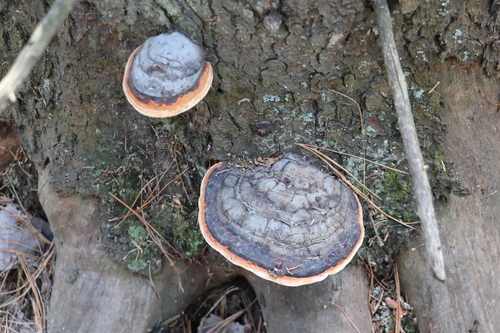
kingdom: Fungi
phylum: Basidiomycota
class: Agaricomycetes
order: Polyporales
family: Fomitopsidaceae
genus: Fomitopsis
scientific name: Fomitopsis pinicola
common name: Red-belted bracket
